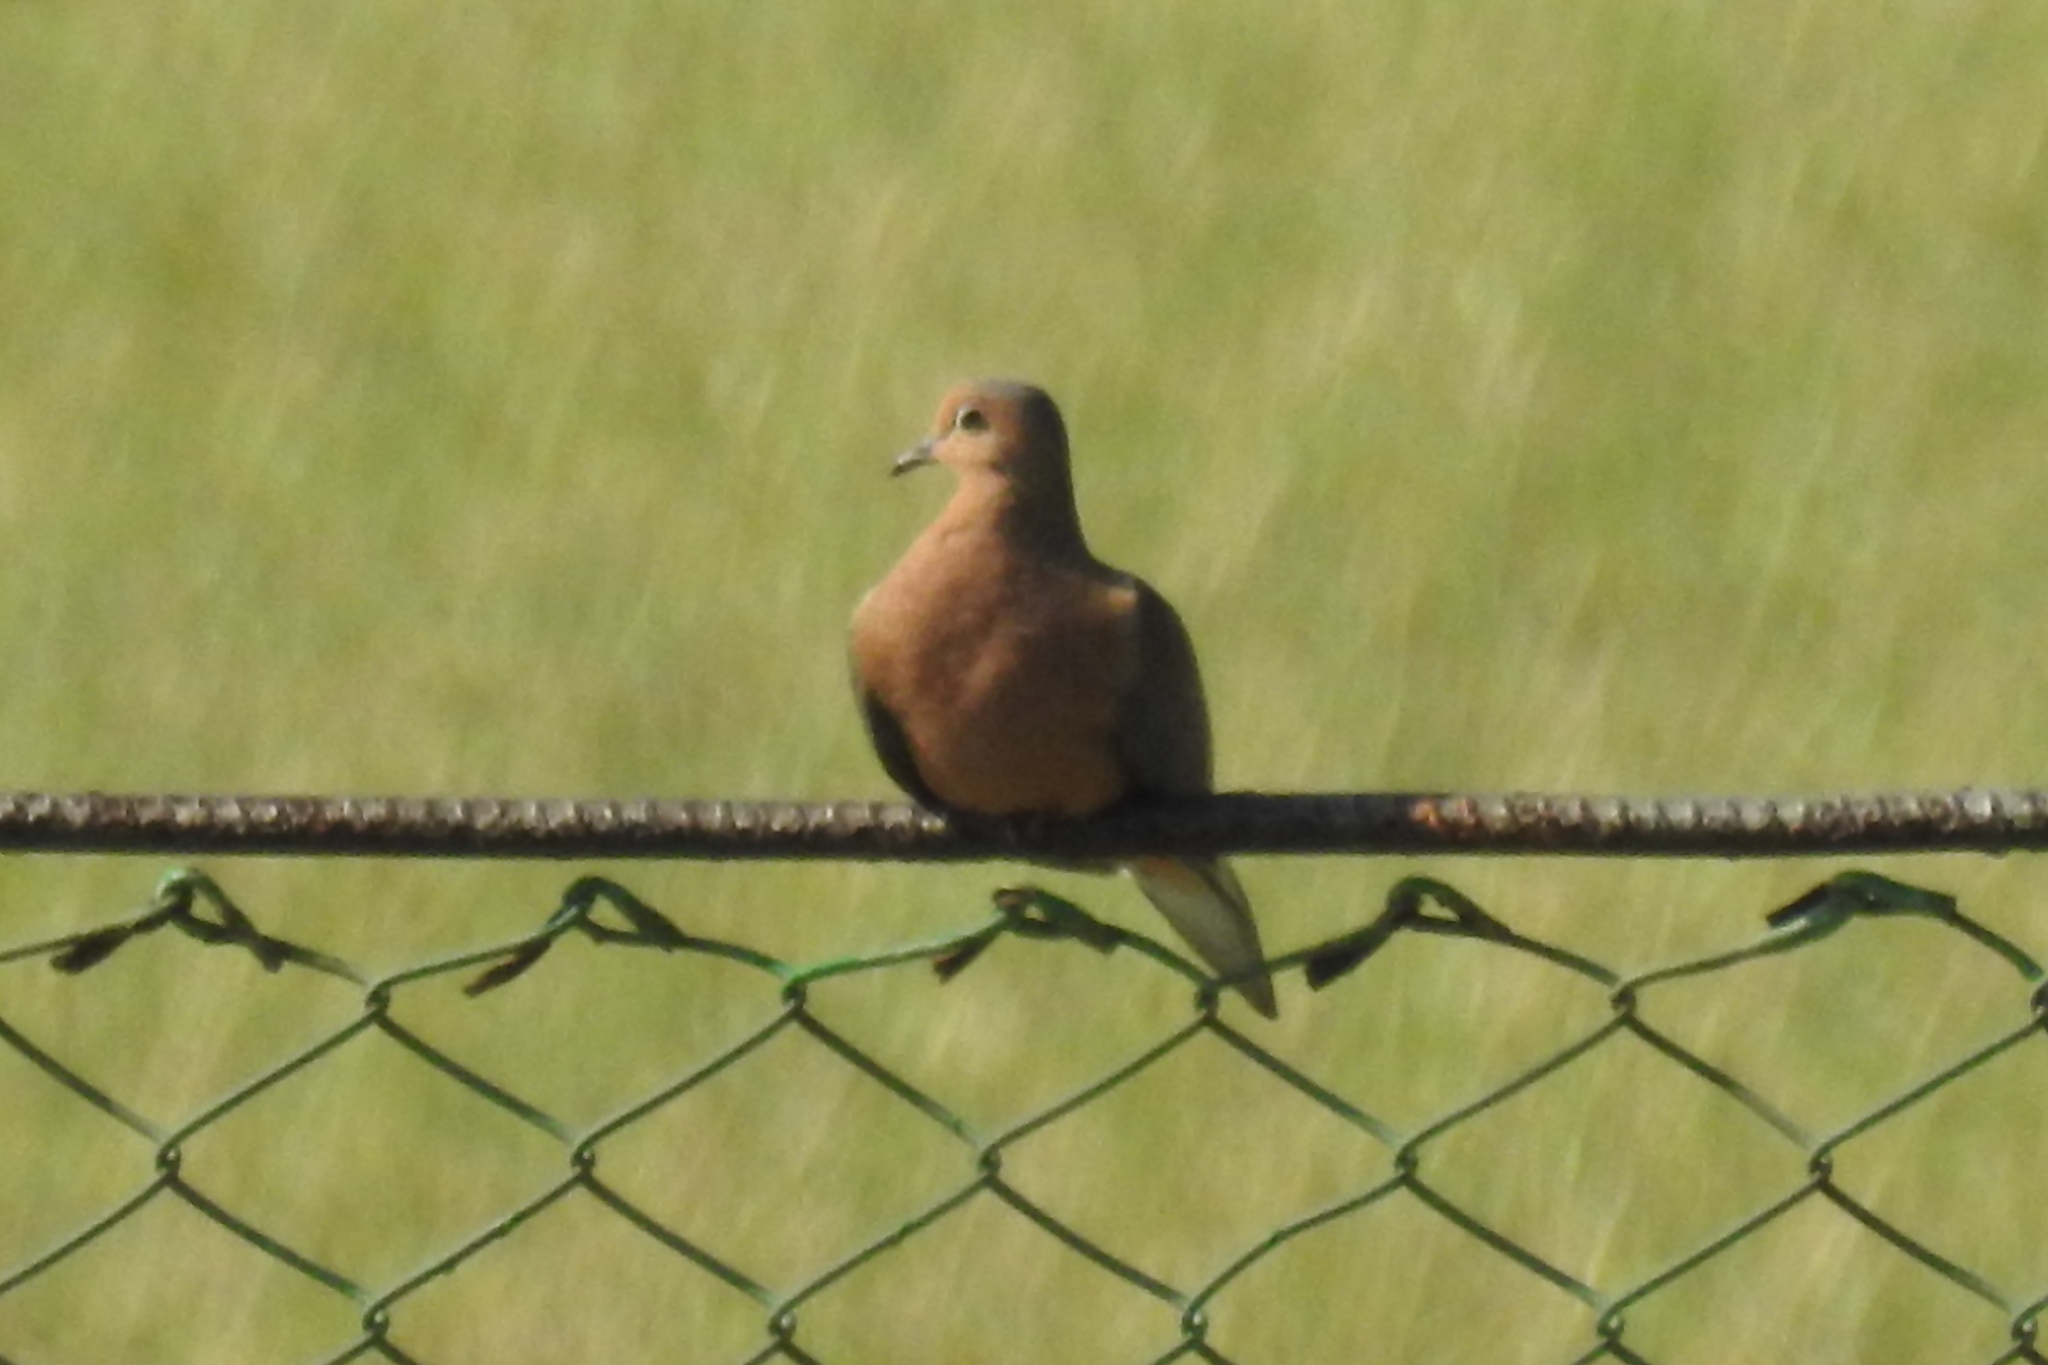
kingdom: Animalia
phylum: Chordata
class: Aves
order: Columbiformes
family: Columbidae
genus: Zenaida
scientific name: Zenaida macroura
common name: Mourning dove
